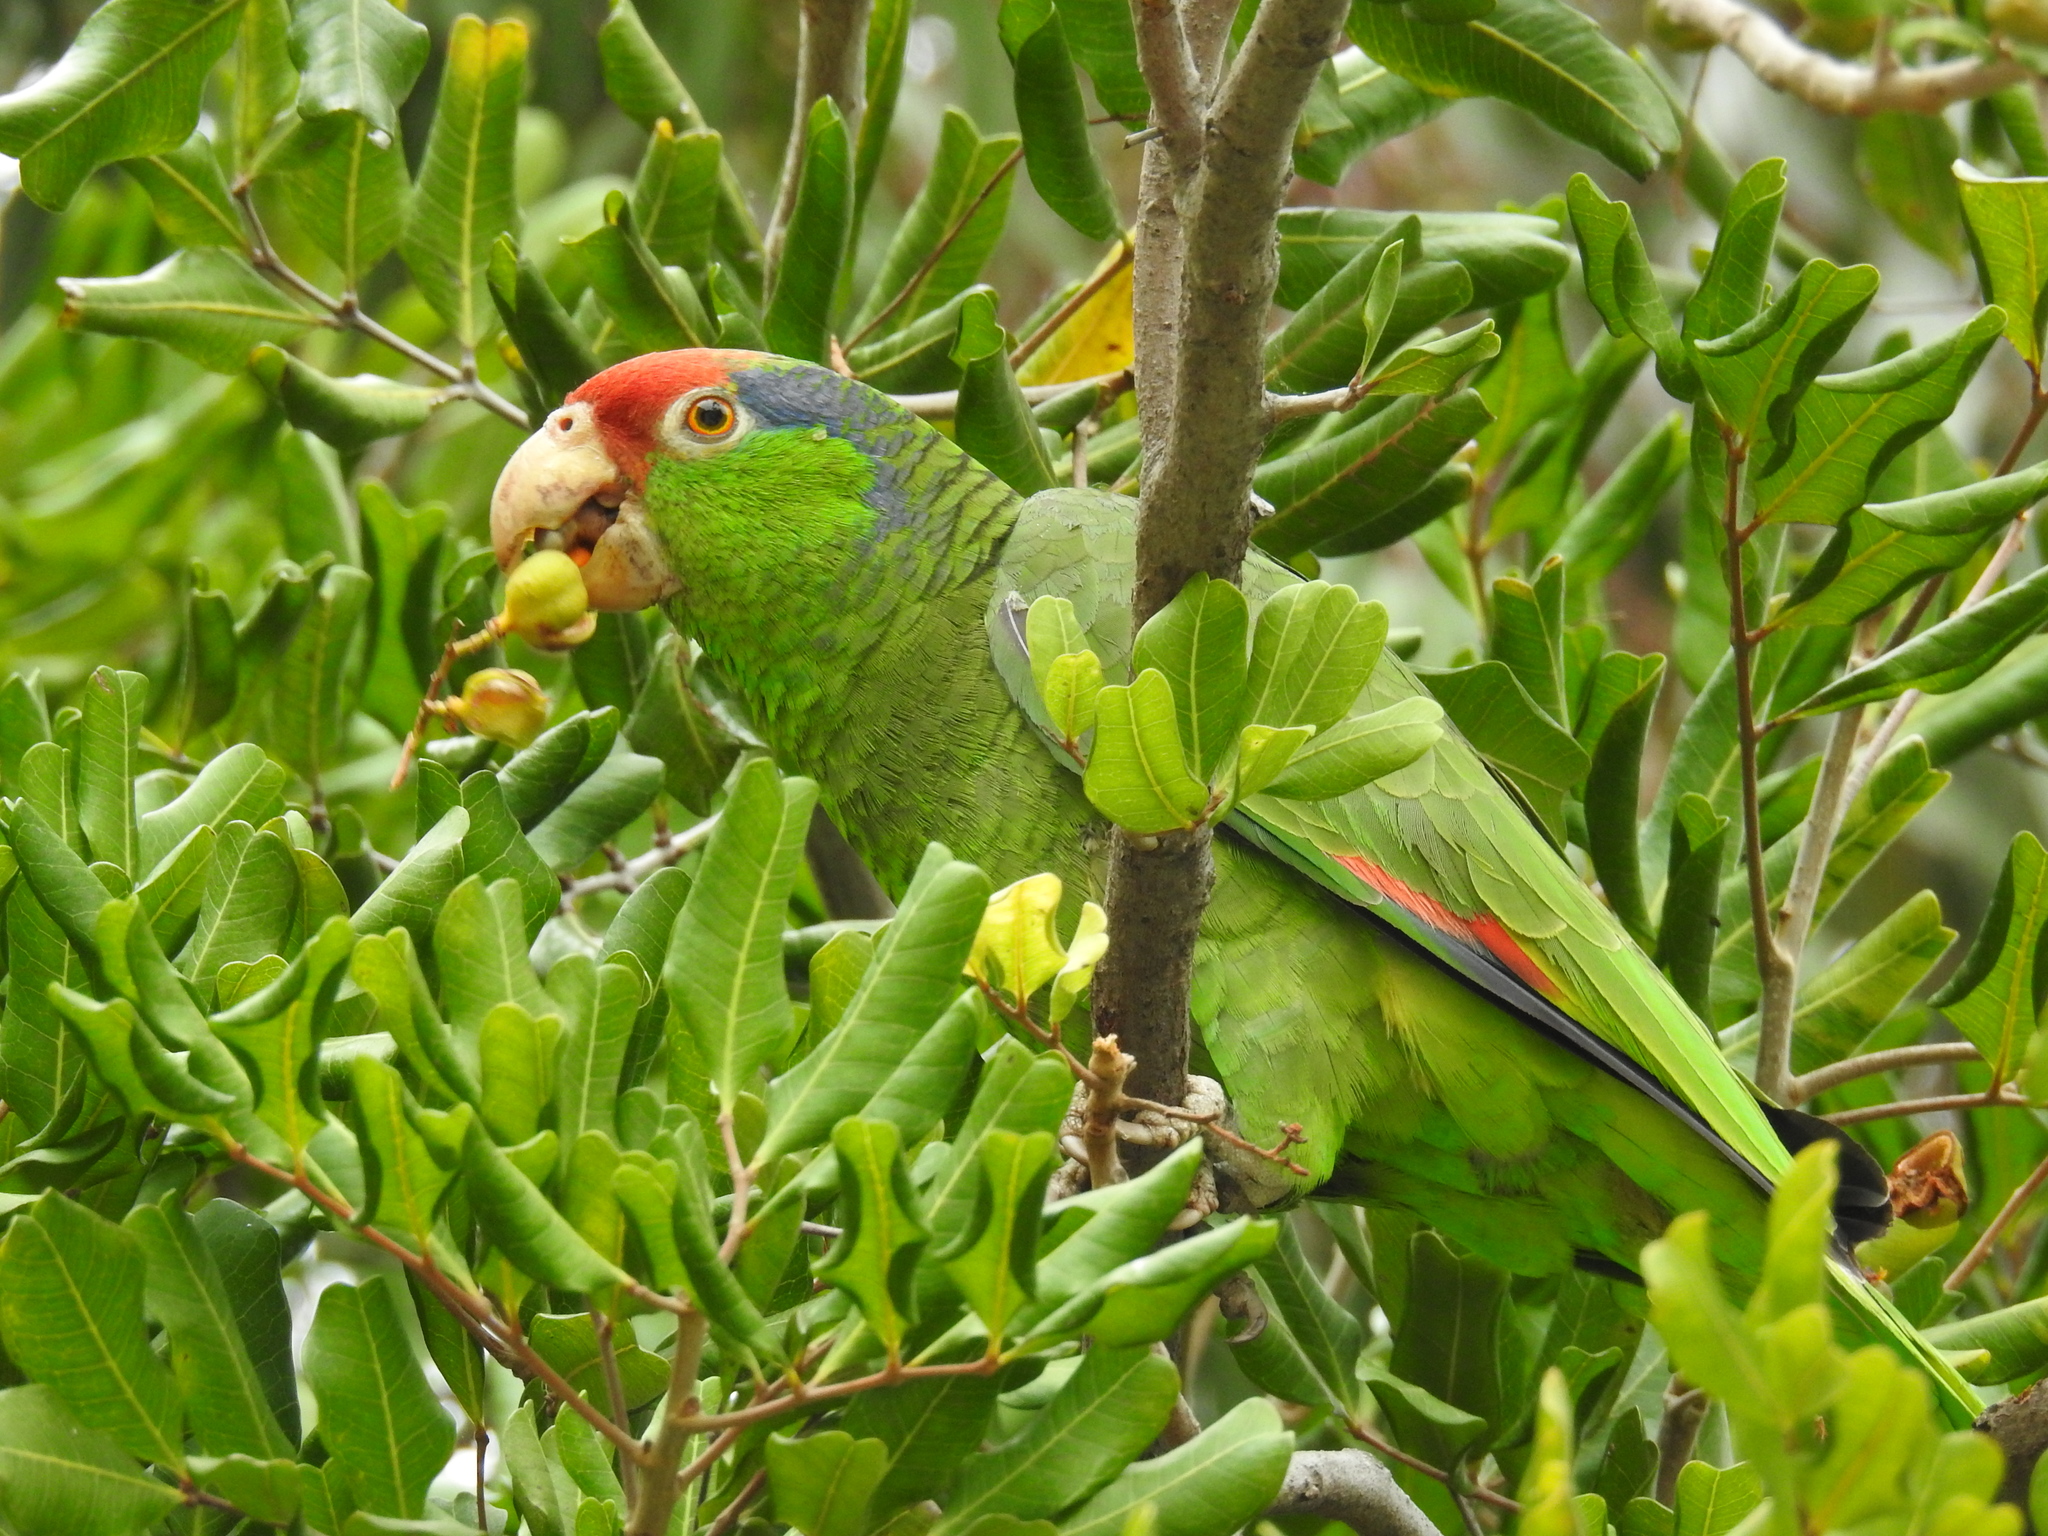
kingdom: Animalia
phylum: Chordata
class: Aves
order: Psittaciformes
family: Psittacidae
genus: Amazona
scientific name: Amazona viridigenalis
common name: Red-crowned amazon
